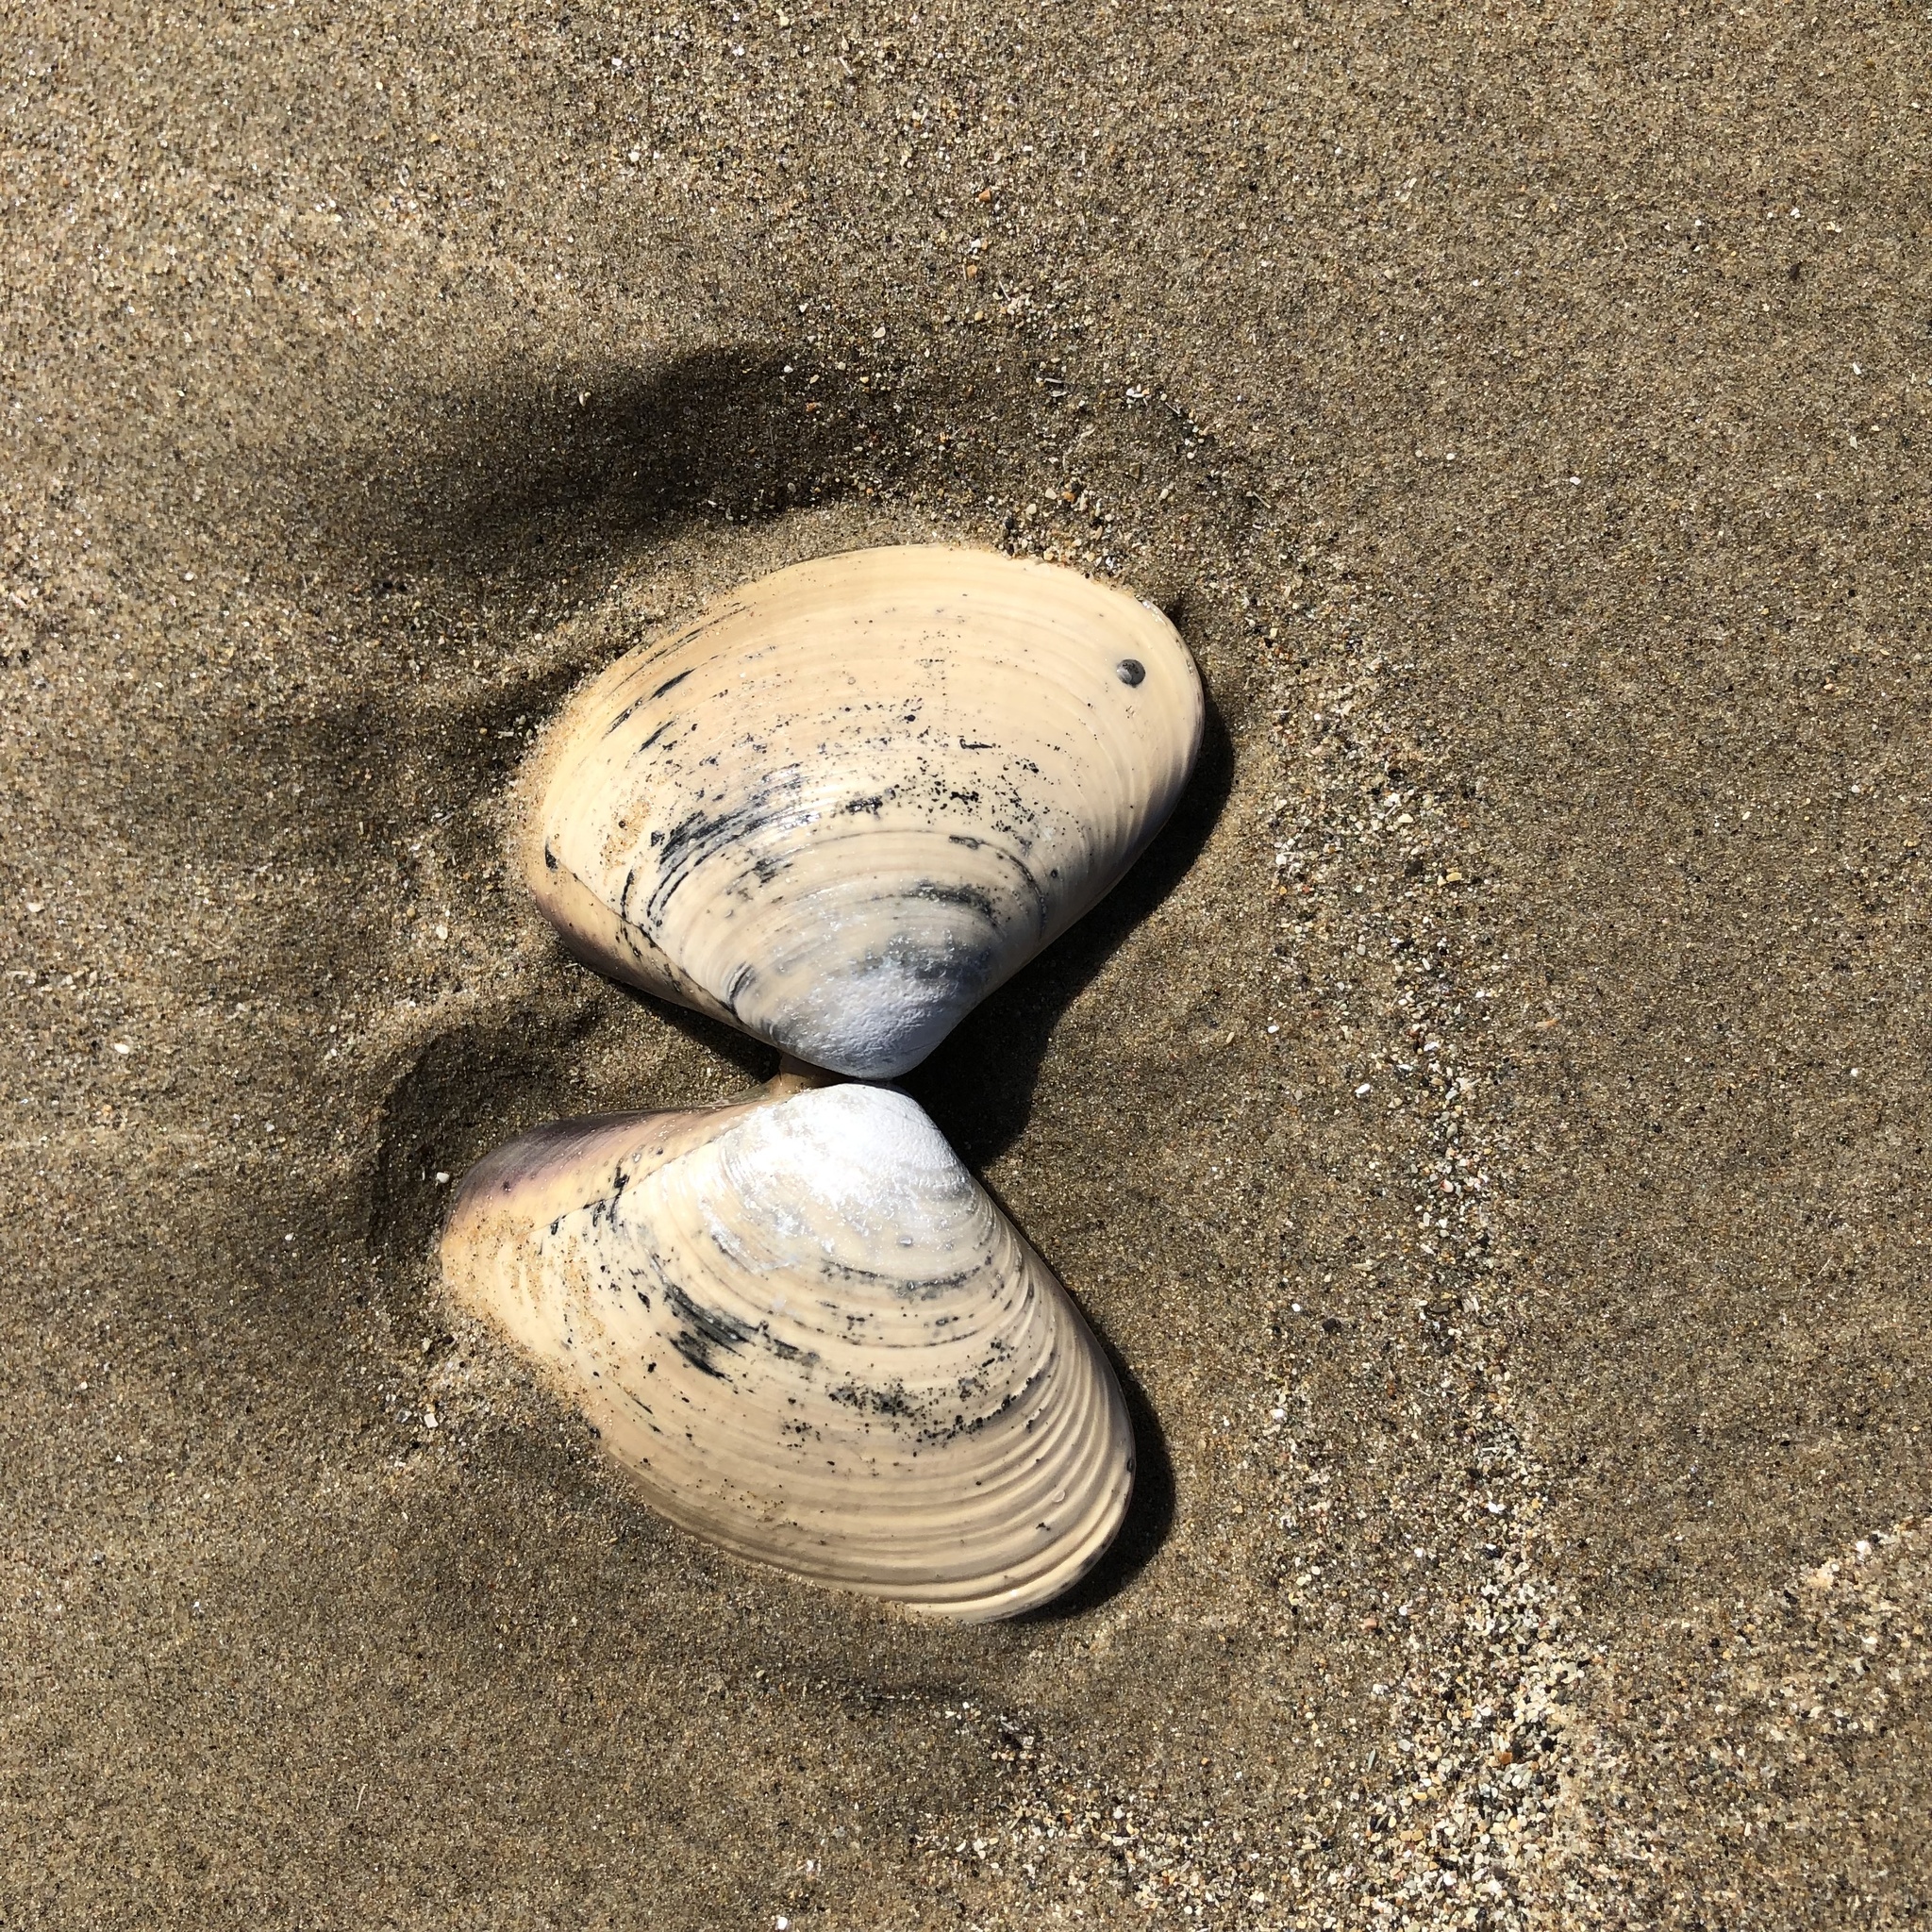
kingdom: Animalia
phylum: Mollusca
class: Bivalvia
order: Venerida
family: Veneridae
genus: Tivela
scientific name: Tivela stultorum
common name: Pismo clam
